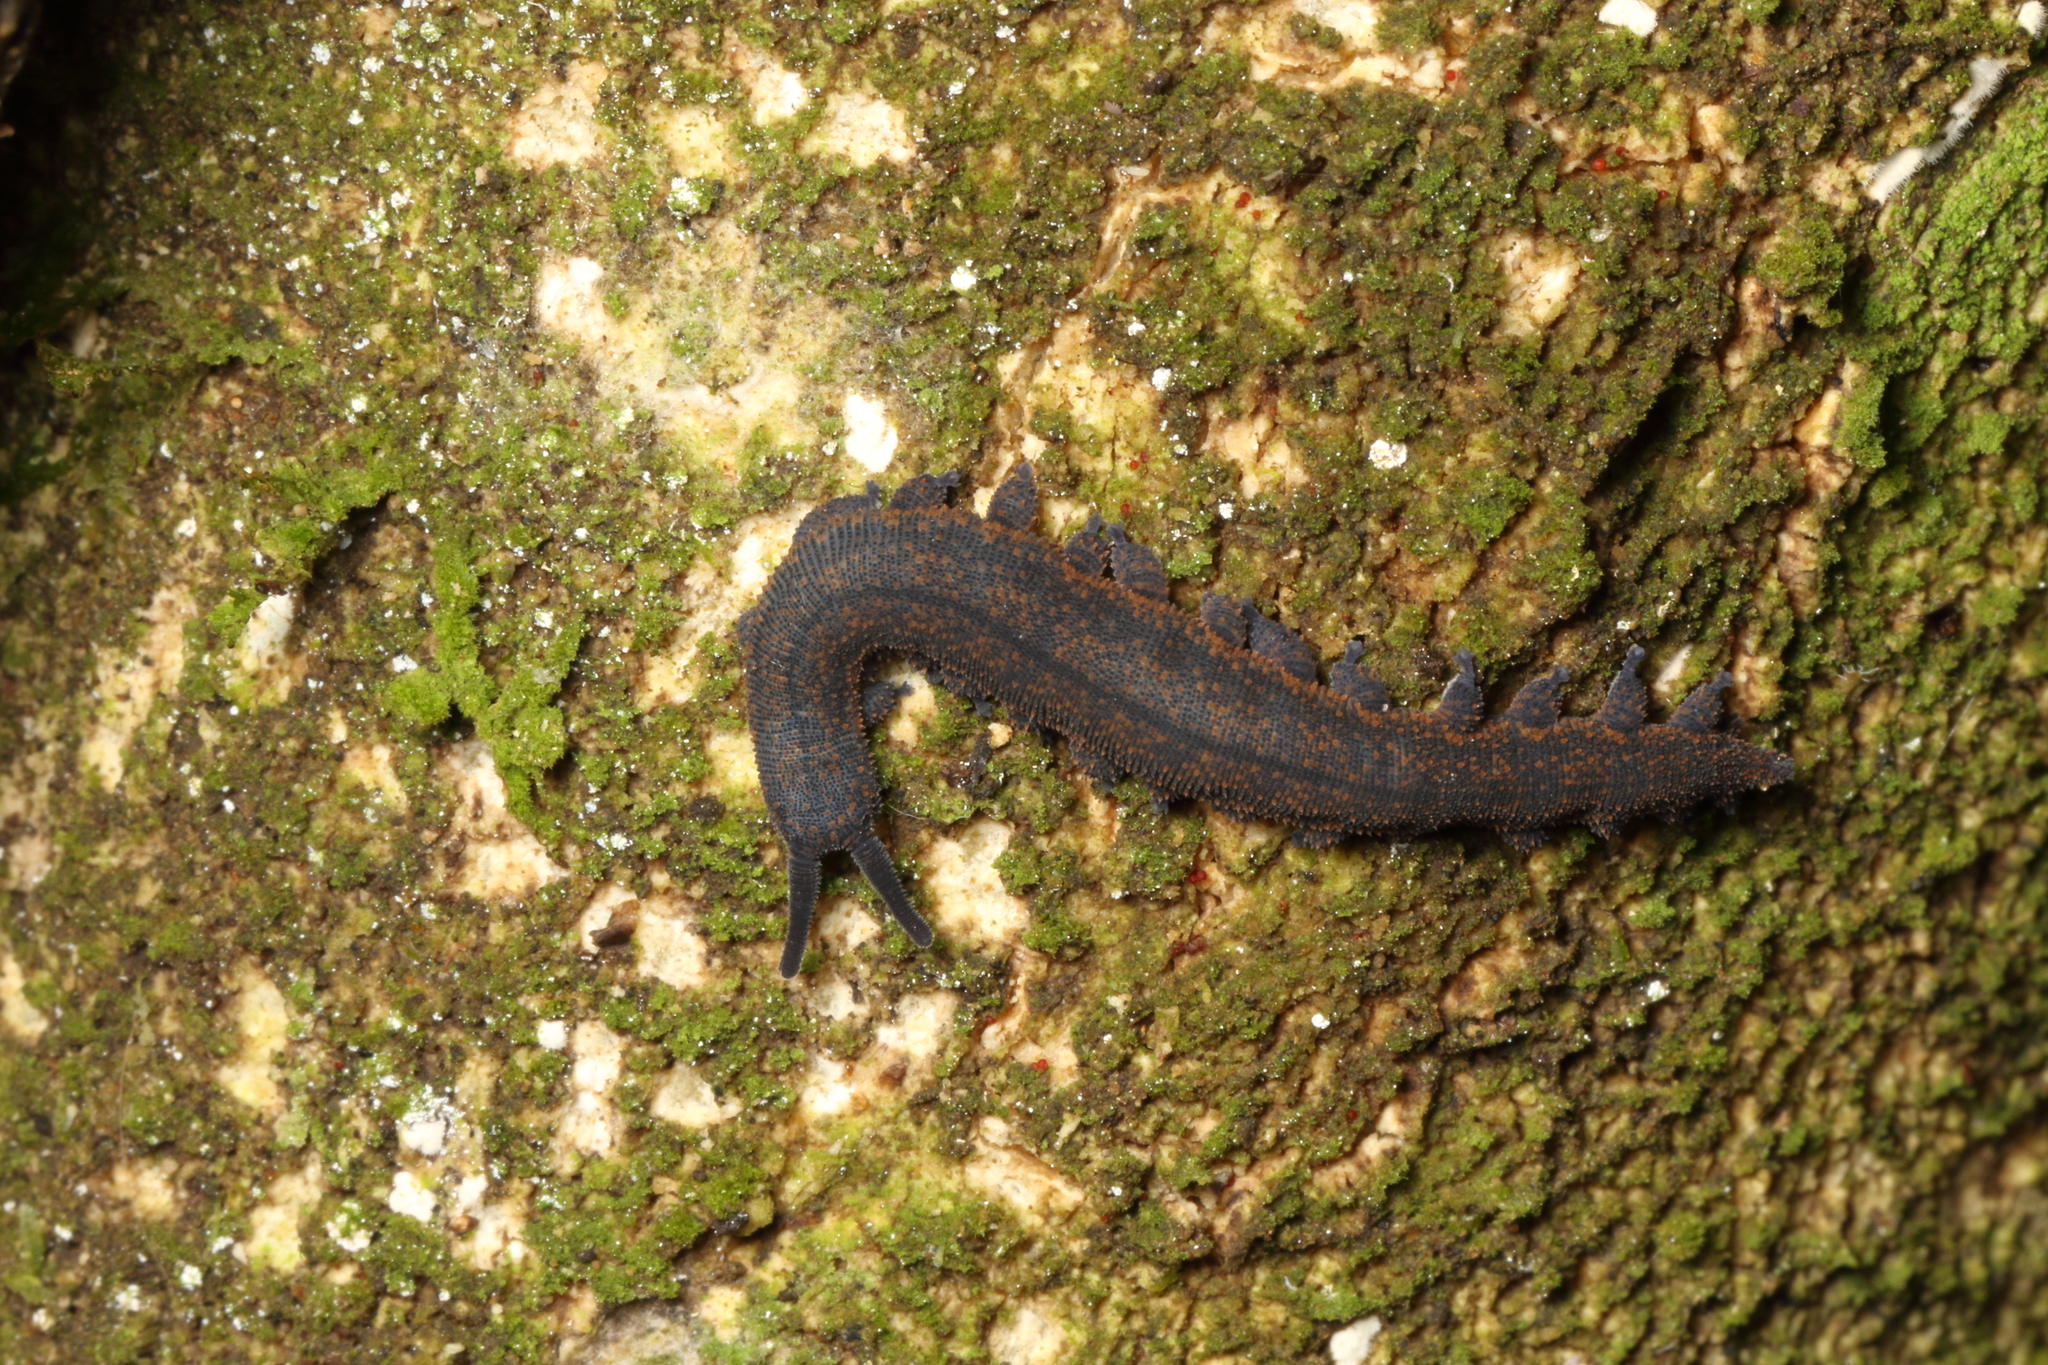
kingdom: Animalia
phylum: Onychophora
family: Peripatopsidae
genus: Peripatoides
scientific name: Peripatoides novaezealandiae
